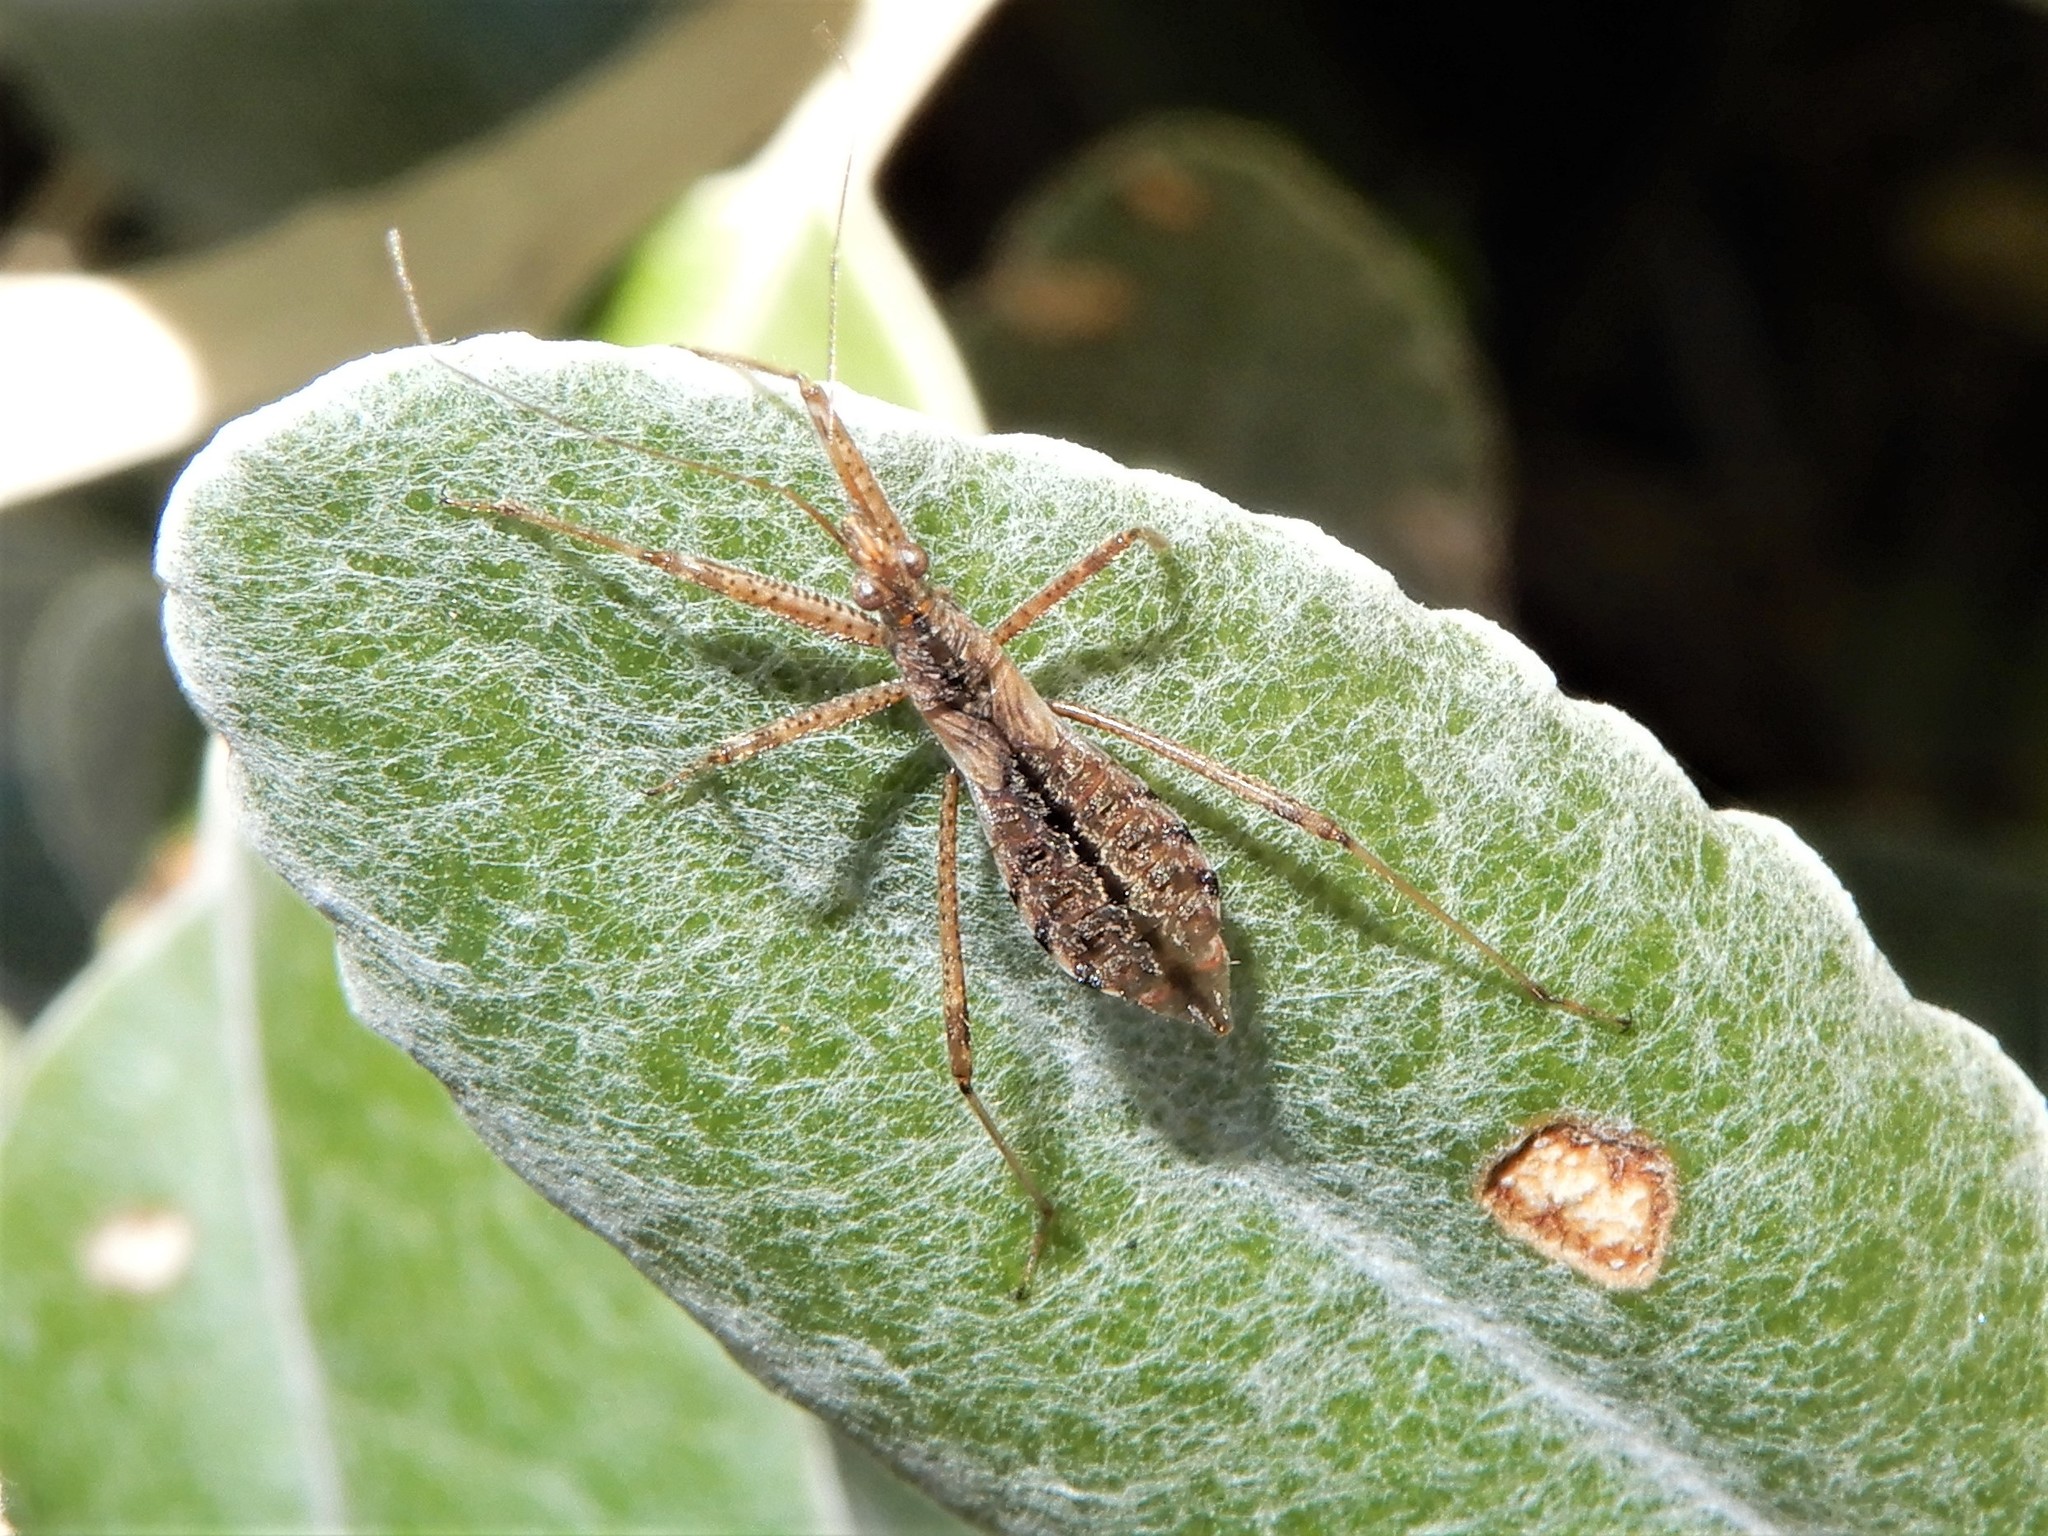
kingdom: Animalia
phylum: Arthropoda
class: Insecta
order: Hemiptera
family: Nabidae
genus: Nabis
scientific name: Nabis
